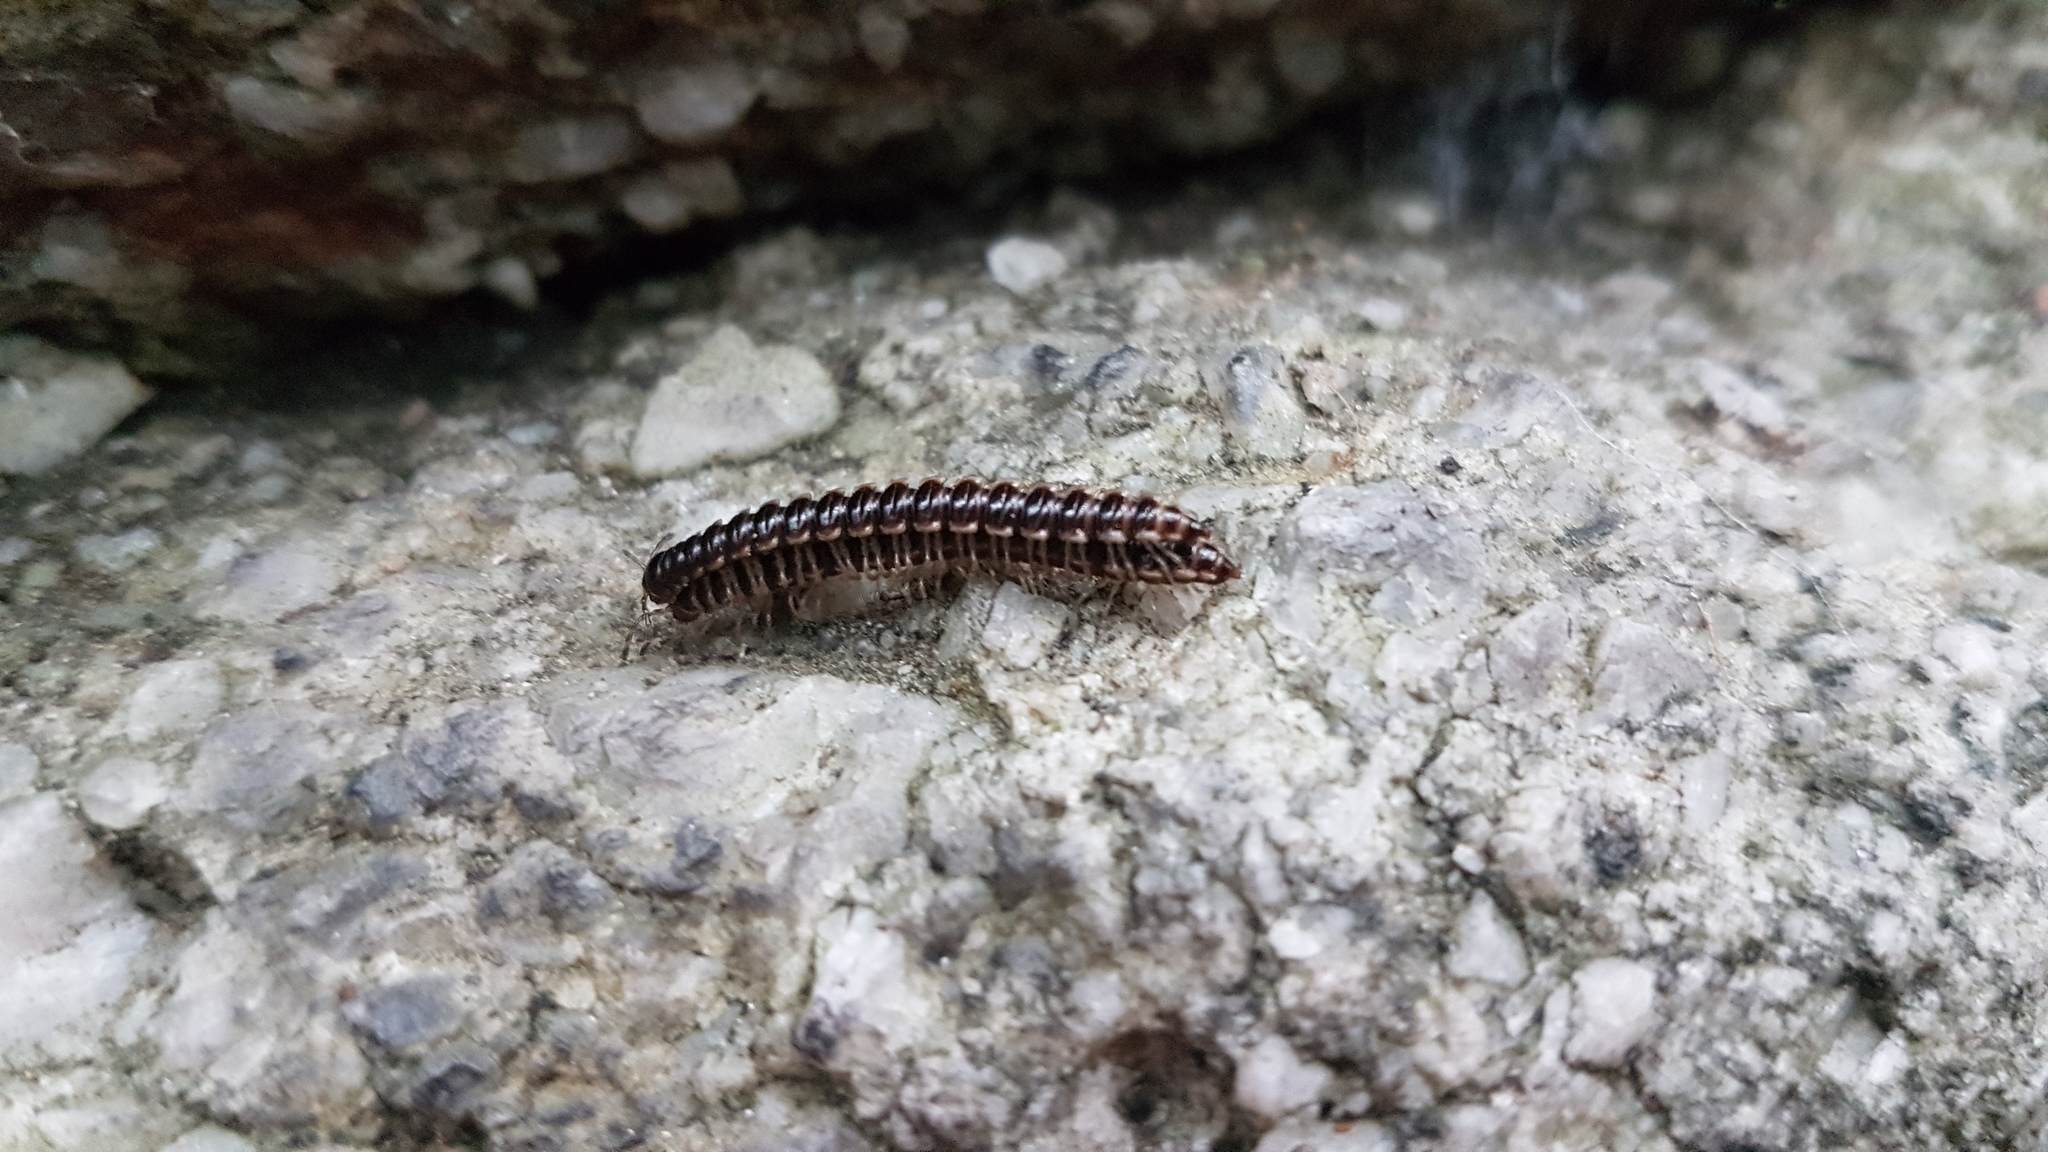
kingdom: Animalia
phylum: Arthropoda
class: Diplopoda
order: Polydesmida
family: Paradoxosomatidae
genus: Oxidus
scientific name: Oxidus gracilis
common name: Greenhouse millipede
